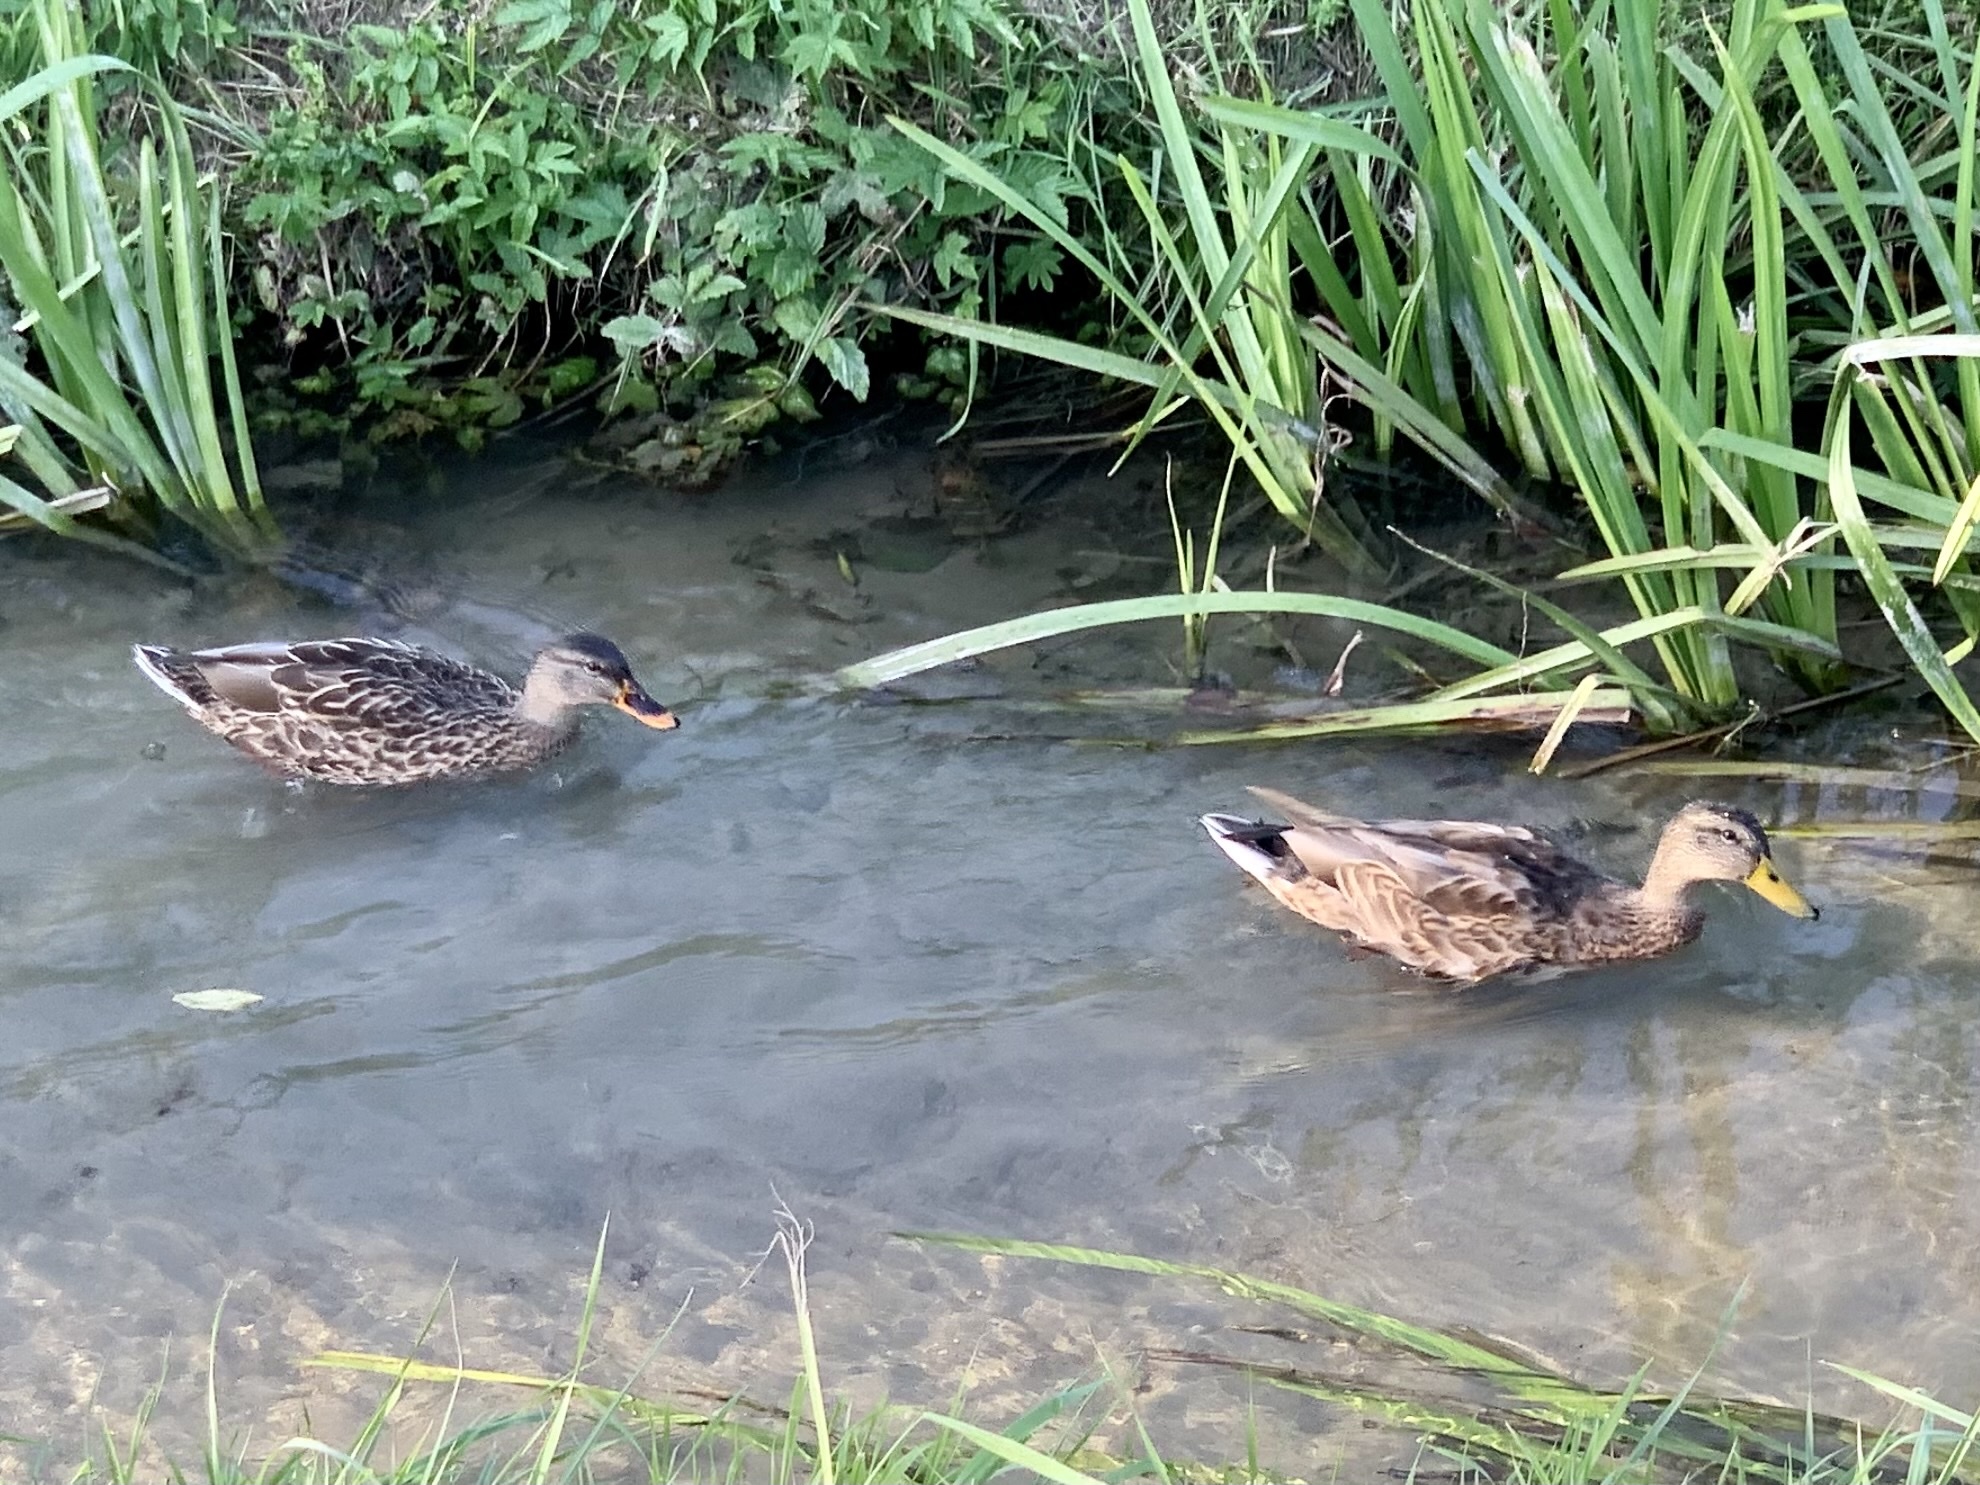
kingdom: Animalia
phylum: Chordata
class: Aves
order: Anseriformes
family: Anatidae
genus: Anas
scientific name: Anas platyrhynchos
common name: Mallard
